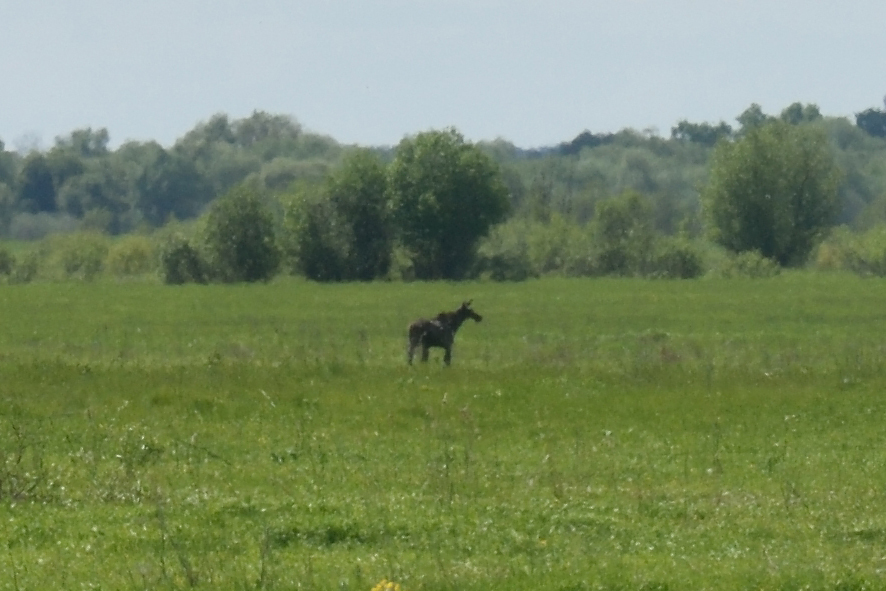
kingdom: Animalia
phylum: Chordata
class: Mammalia
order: Artiodactyla
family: Cervidae
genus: Alces
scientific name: Alces alces
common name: Moose
